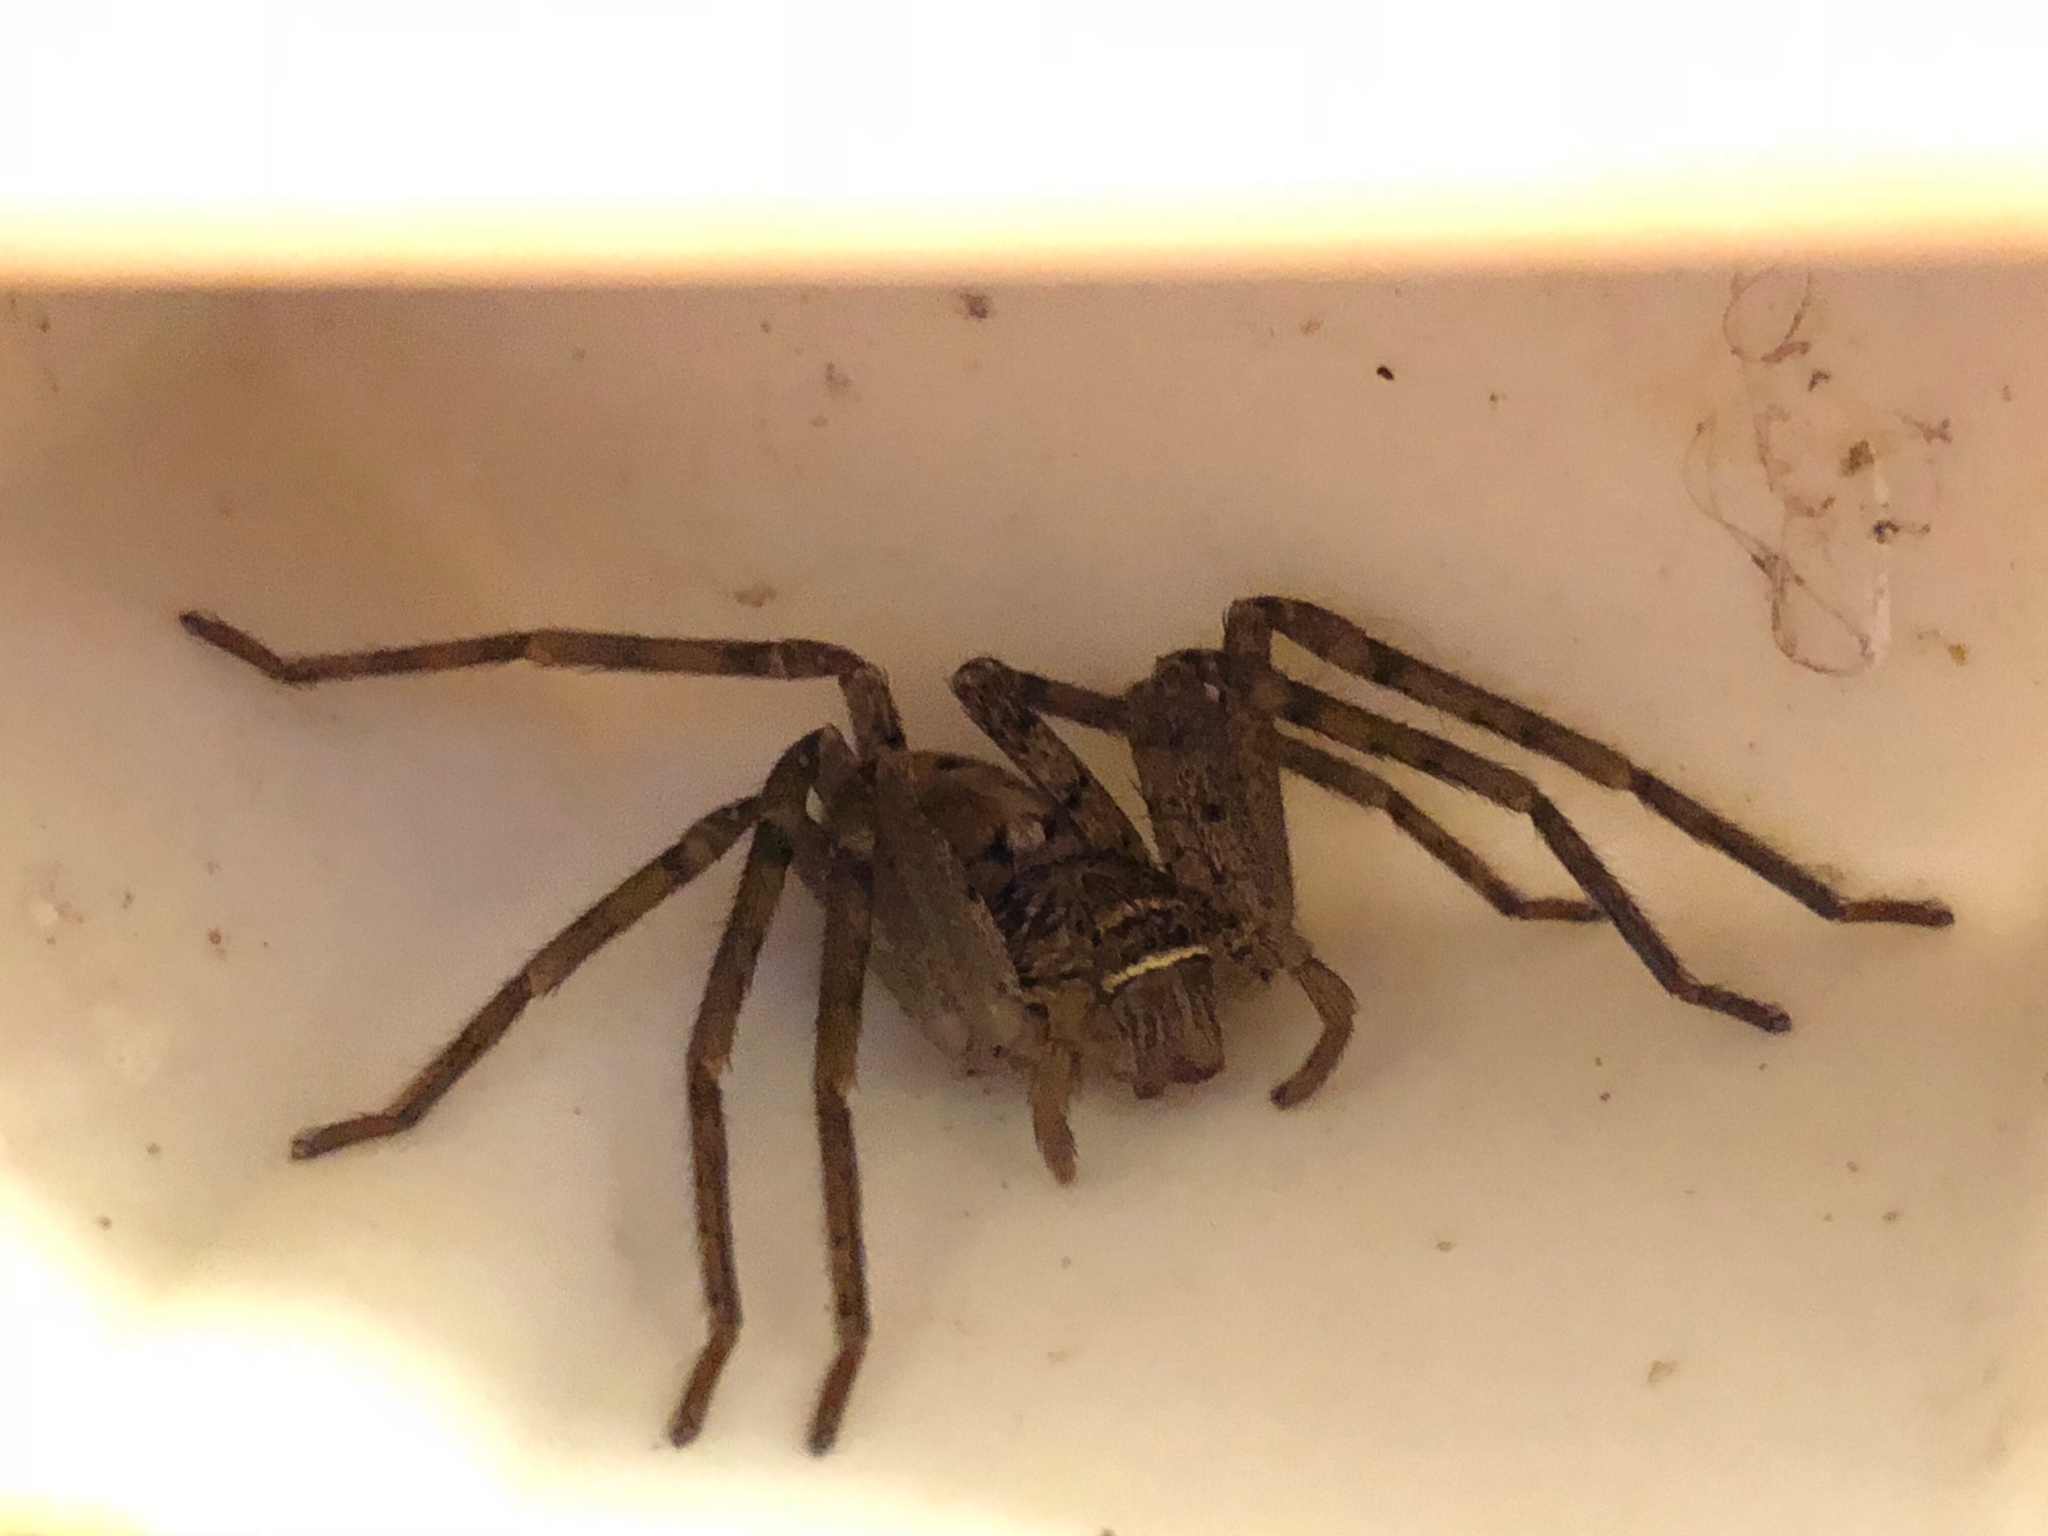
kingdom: Animalia
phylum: Arthropoda
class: Arachnida
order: Araneae
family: Sparassidae
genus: Heteropoda
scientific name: Heteropoda venatoria
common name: Huntsman spider
